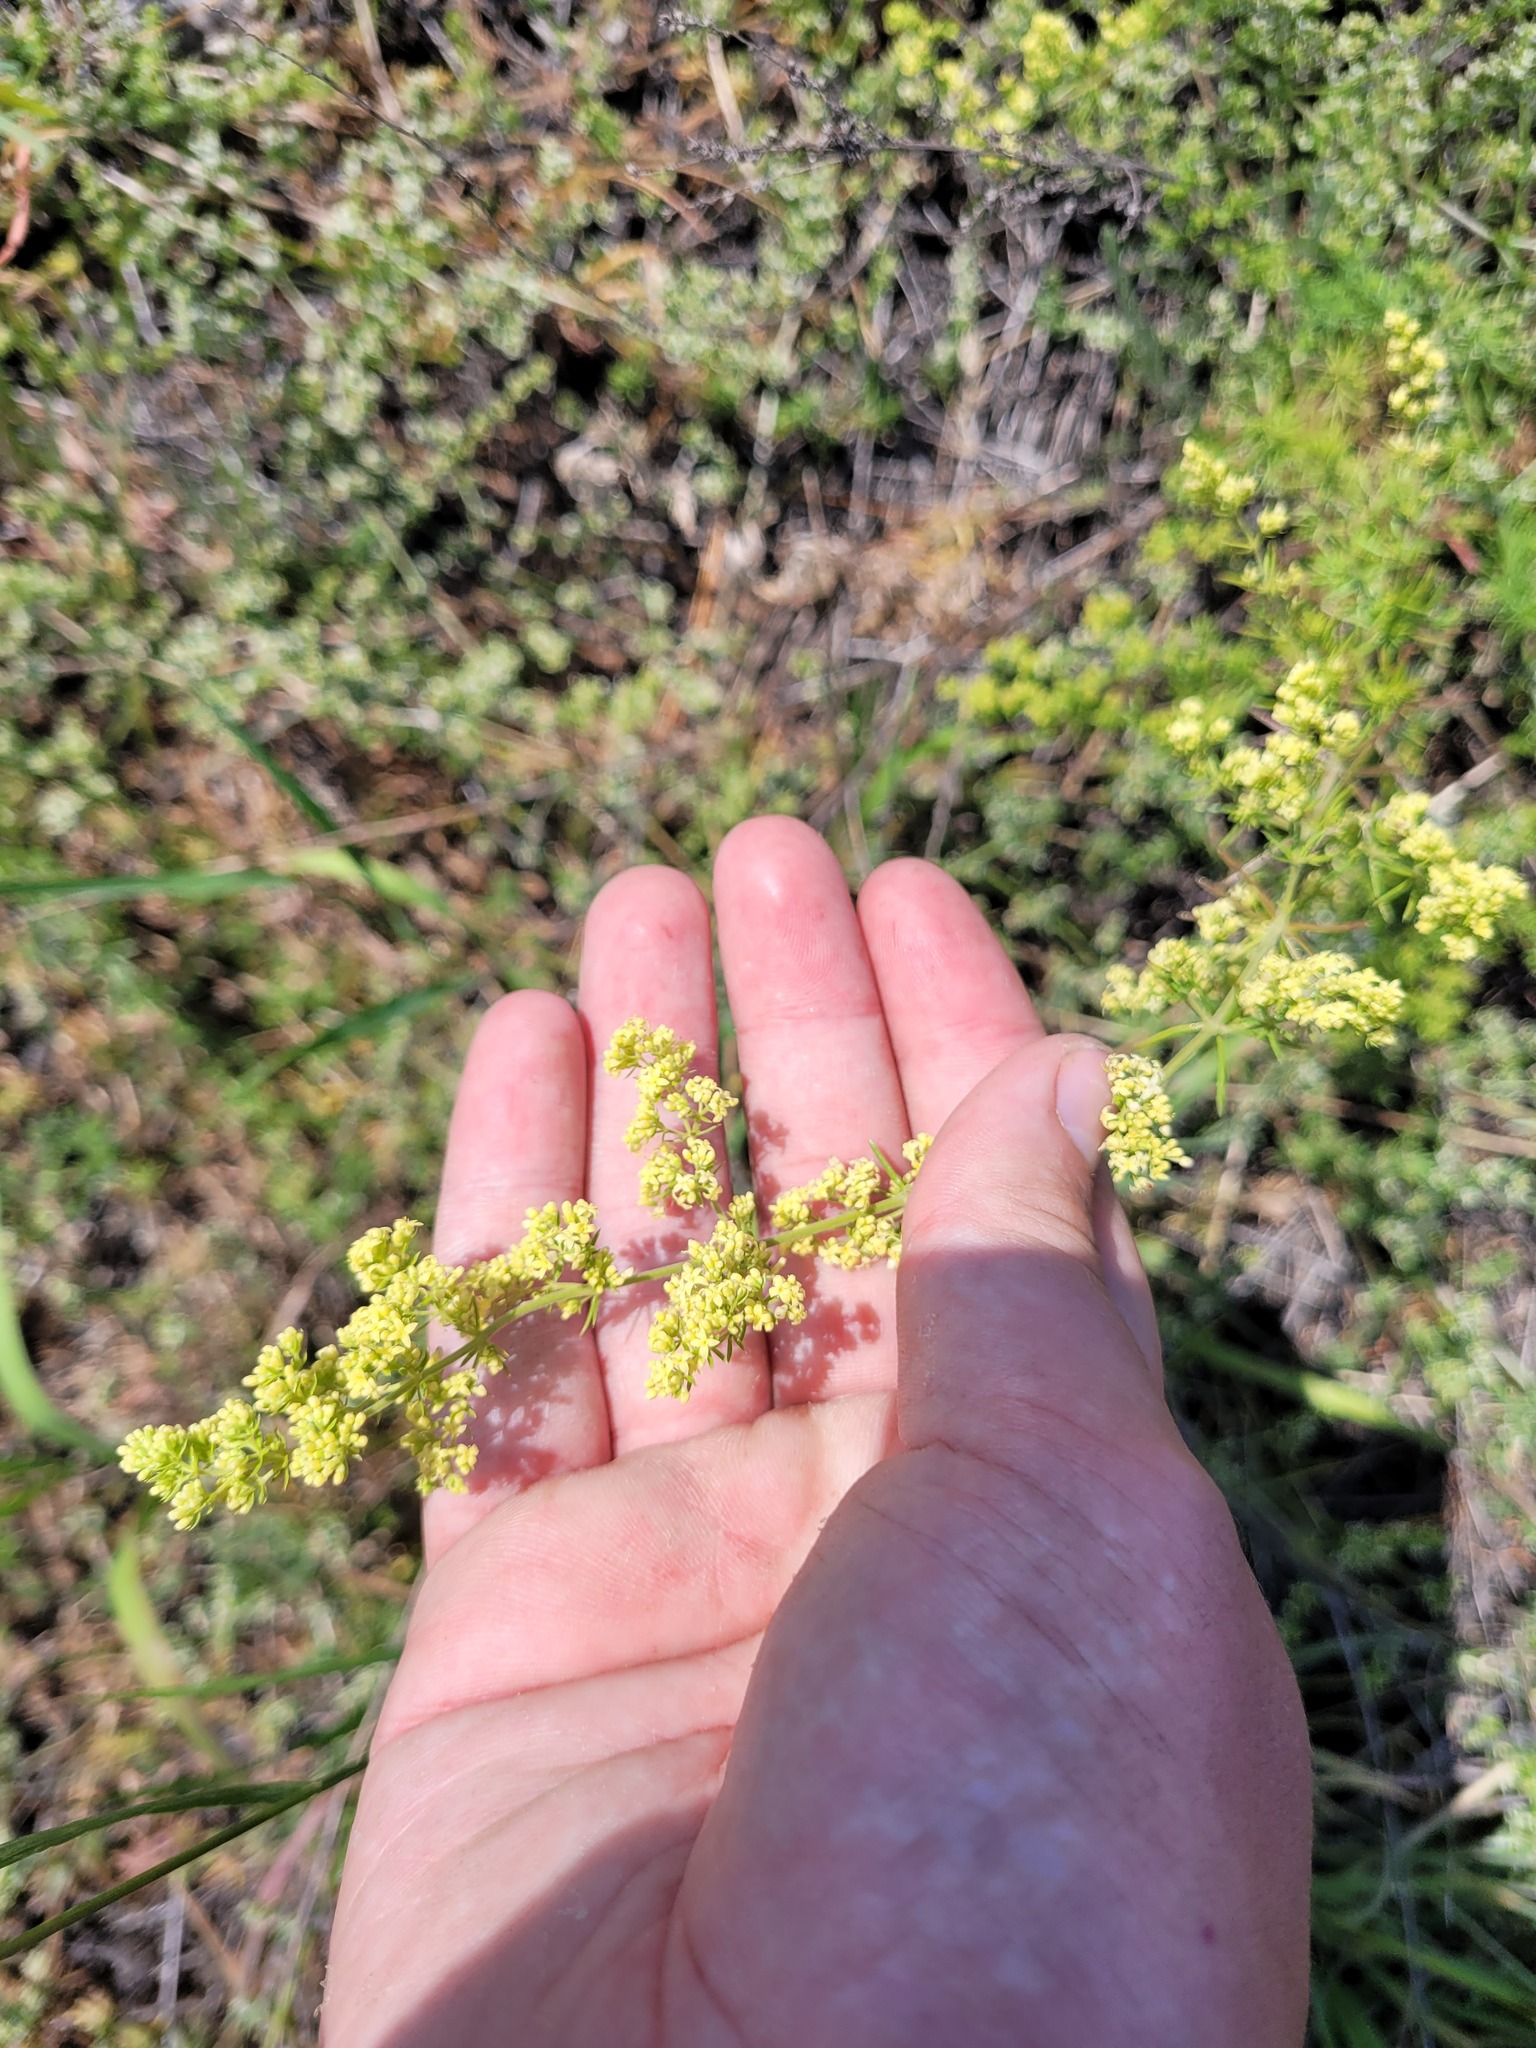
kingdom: Plantae
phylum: Tracheophyta
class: Magnoliopsida
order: Gentianales
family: Rubiaceae
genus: Galium
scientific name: Galium himmelbaurianum
